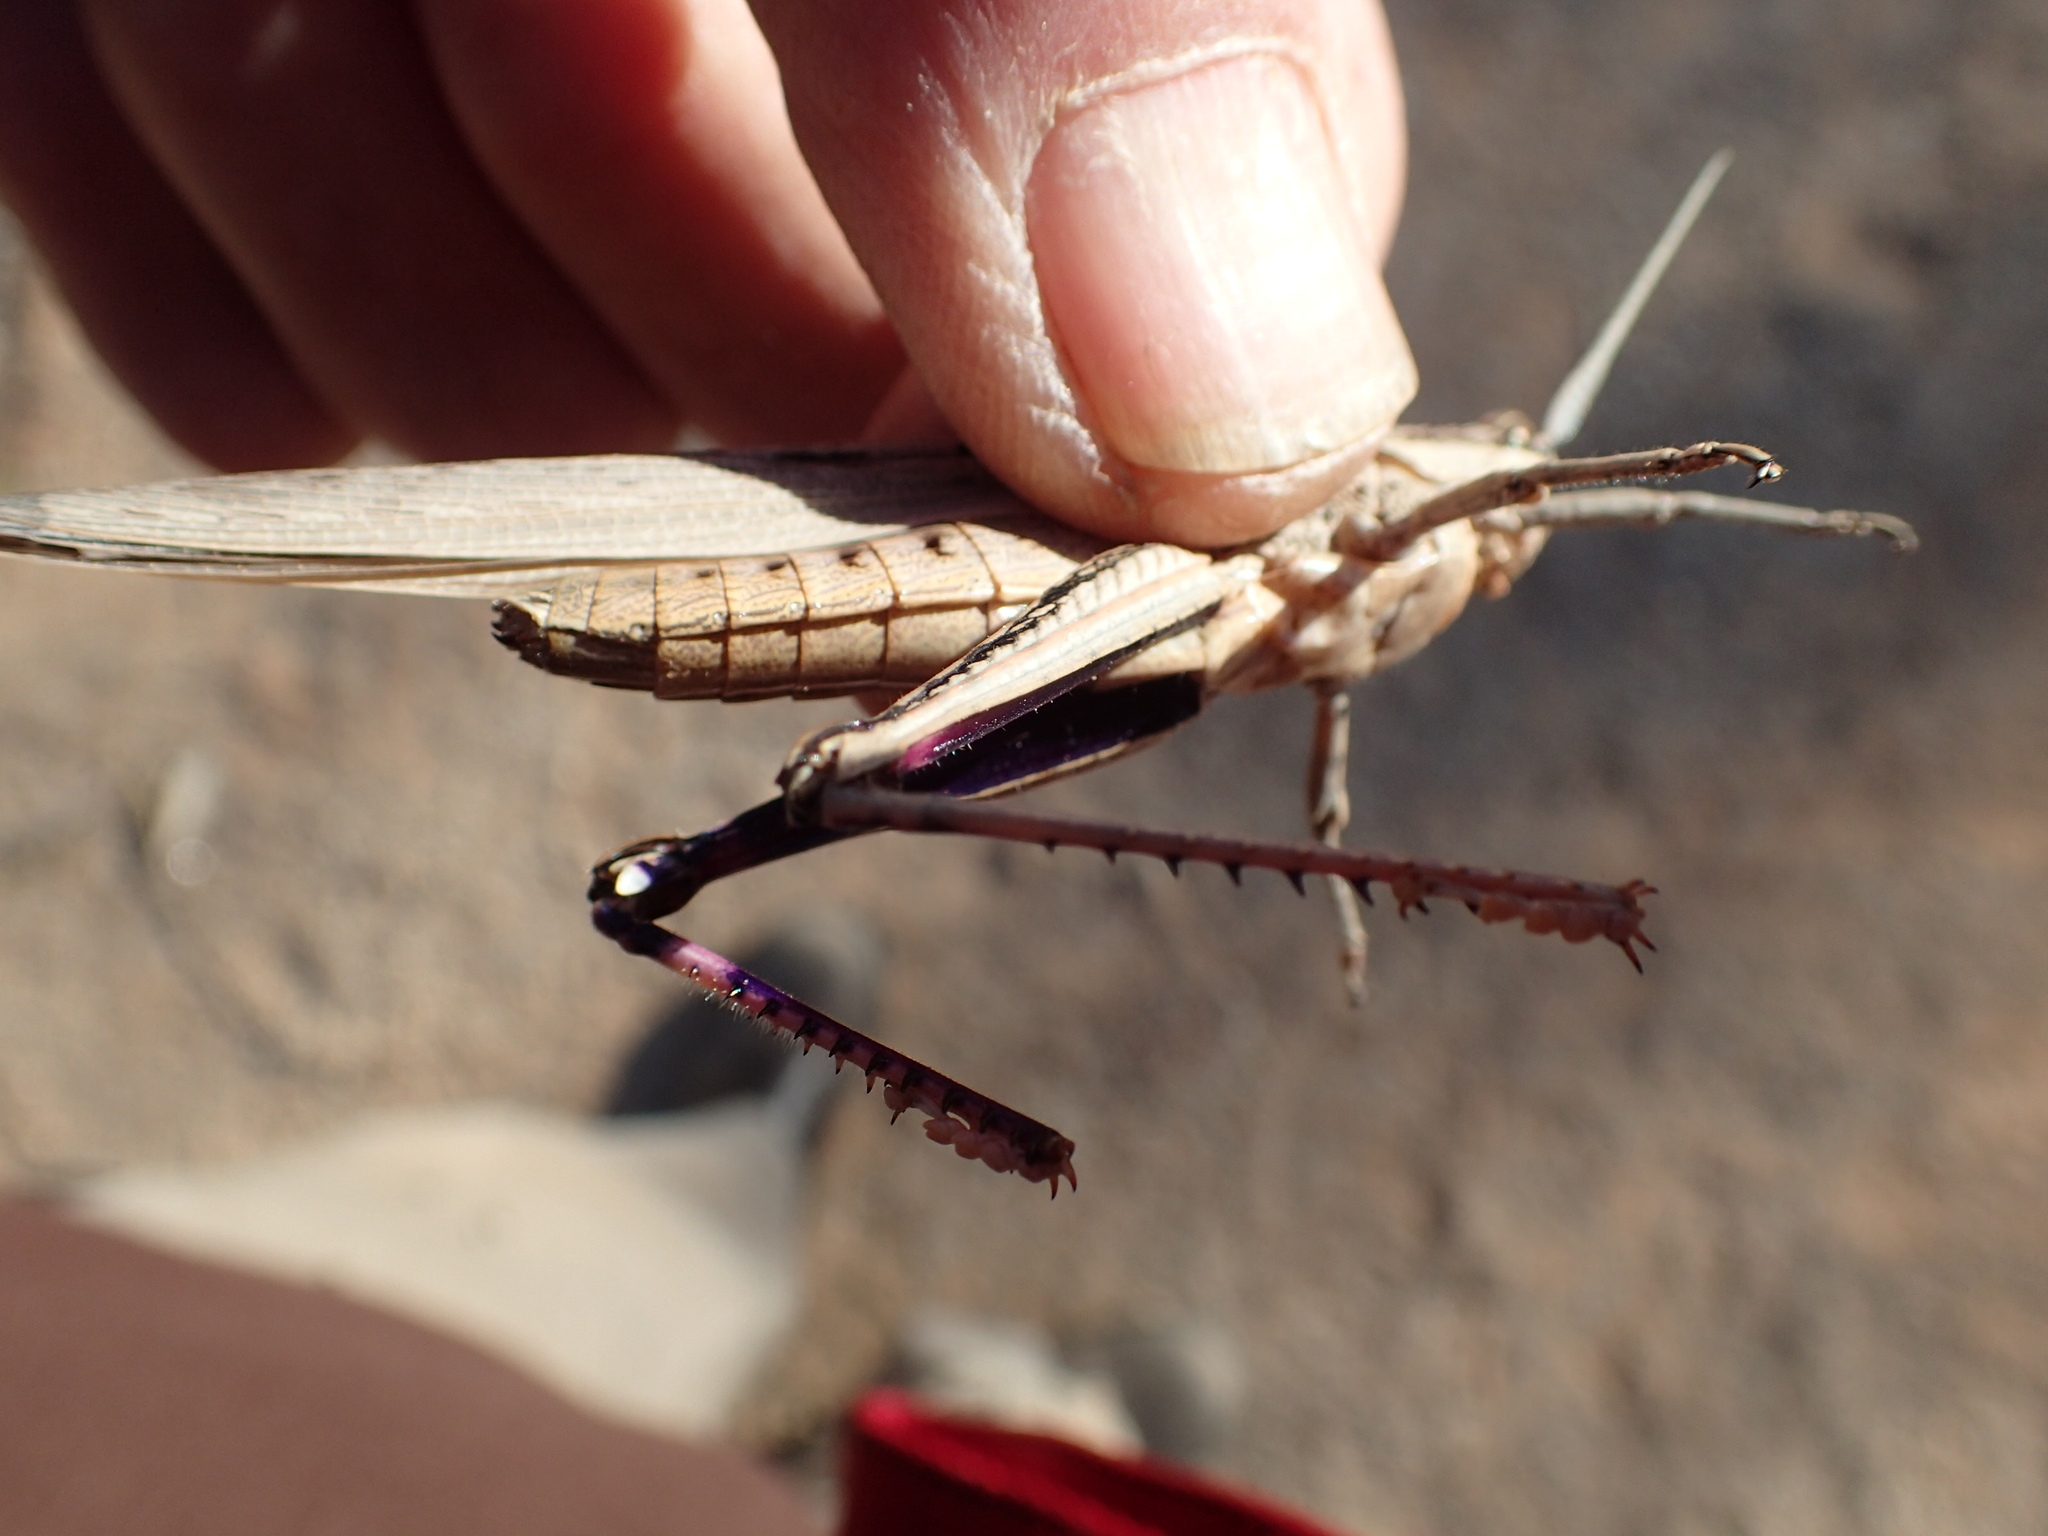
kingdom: Animalia
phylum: Arthropoda
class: Insecta
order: Orthoptera
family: Acrididae
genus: Coryphistes
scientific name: Coryphistes ruricola
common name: Bark-mimicking grasshopper
